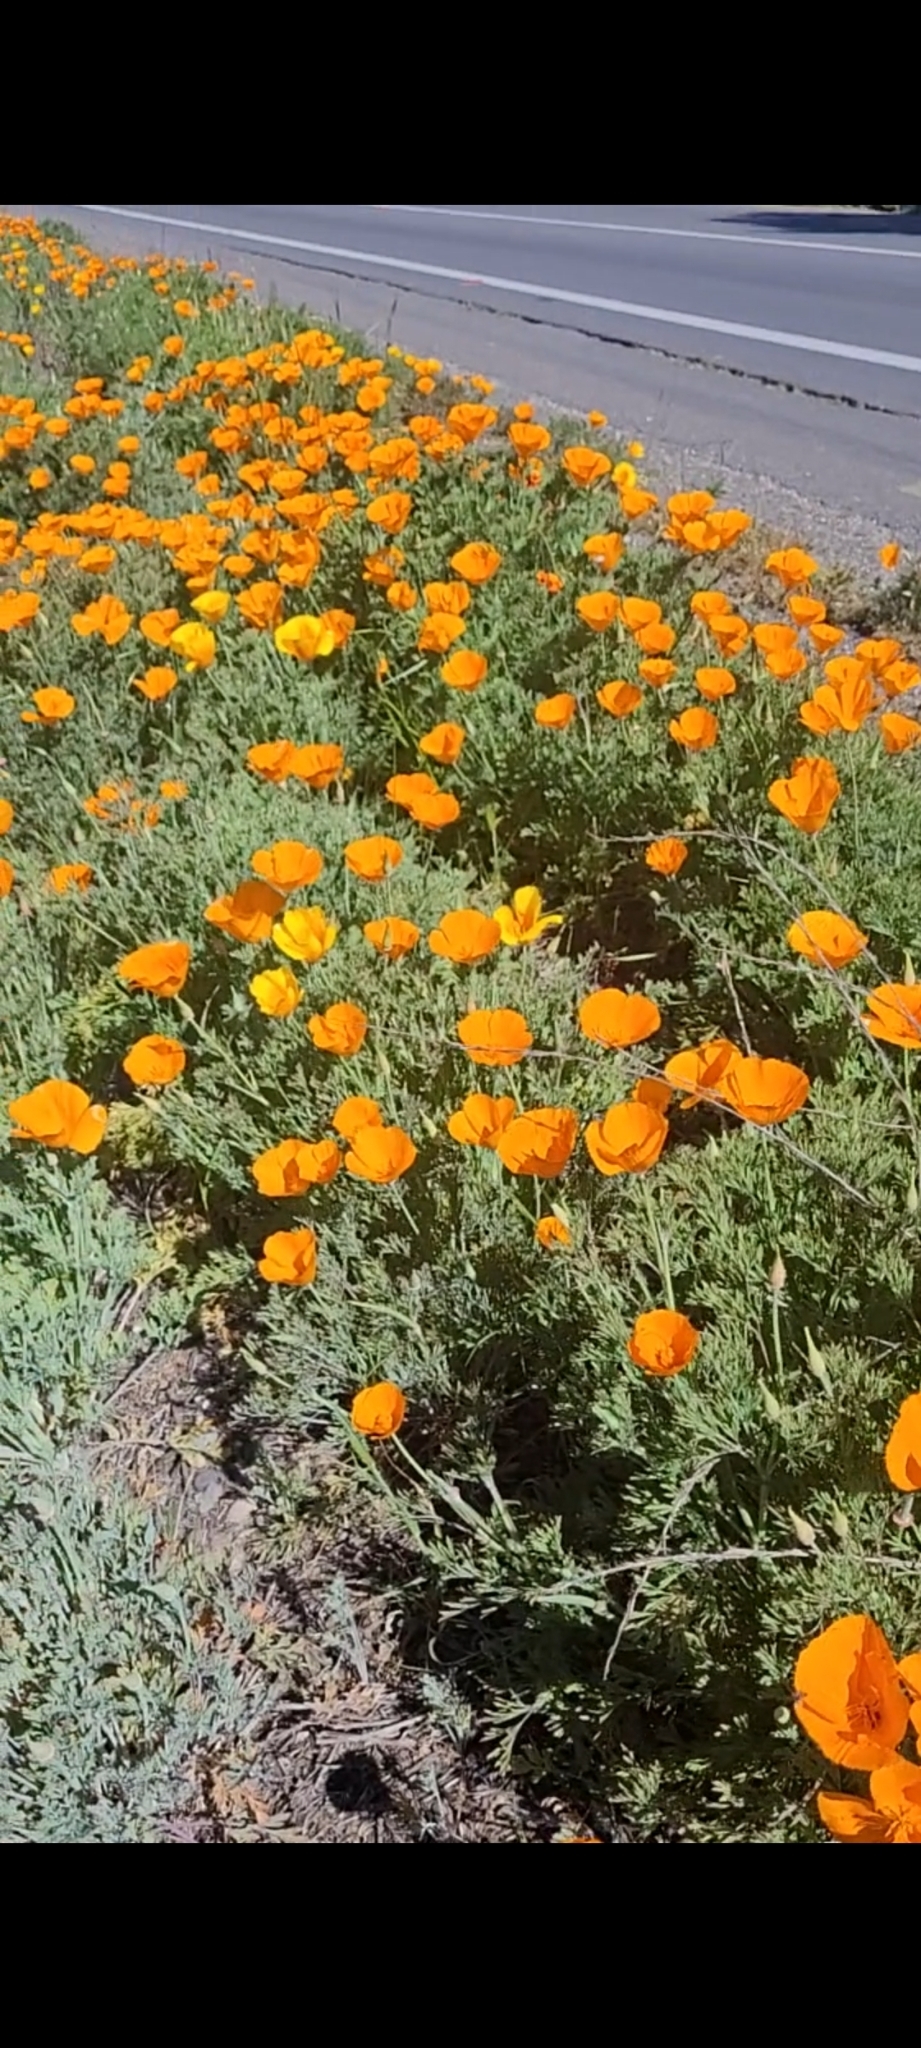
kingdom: Plantae
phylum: Tracheophyta
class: Magnoliopsida
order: Ranunculales
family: Papaveraceae
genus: Eschscholzia
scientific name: Eschscholzia californica
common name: California poppy
